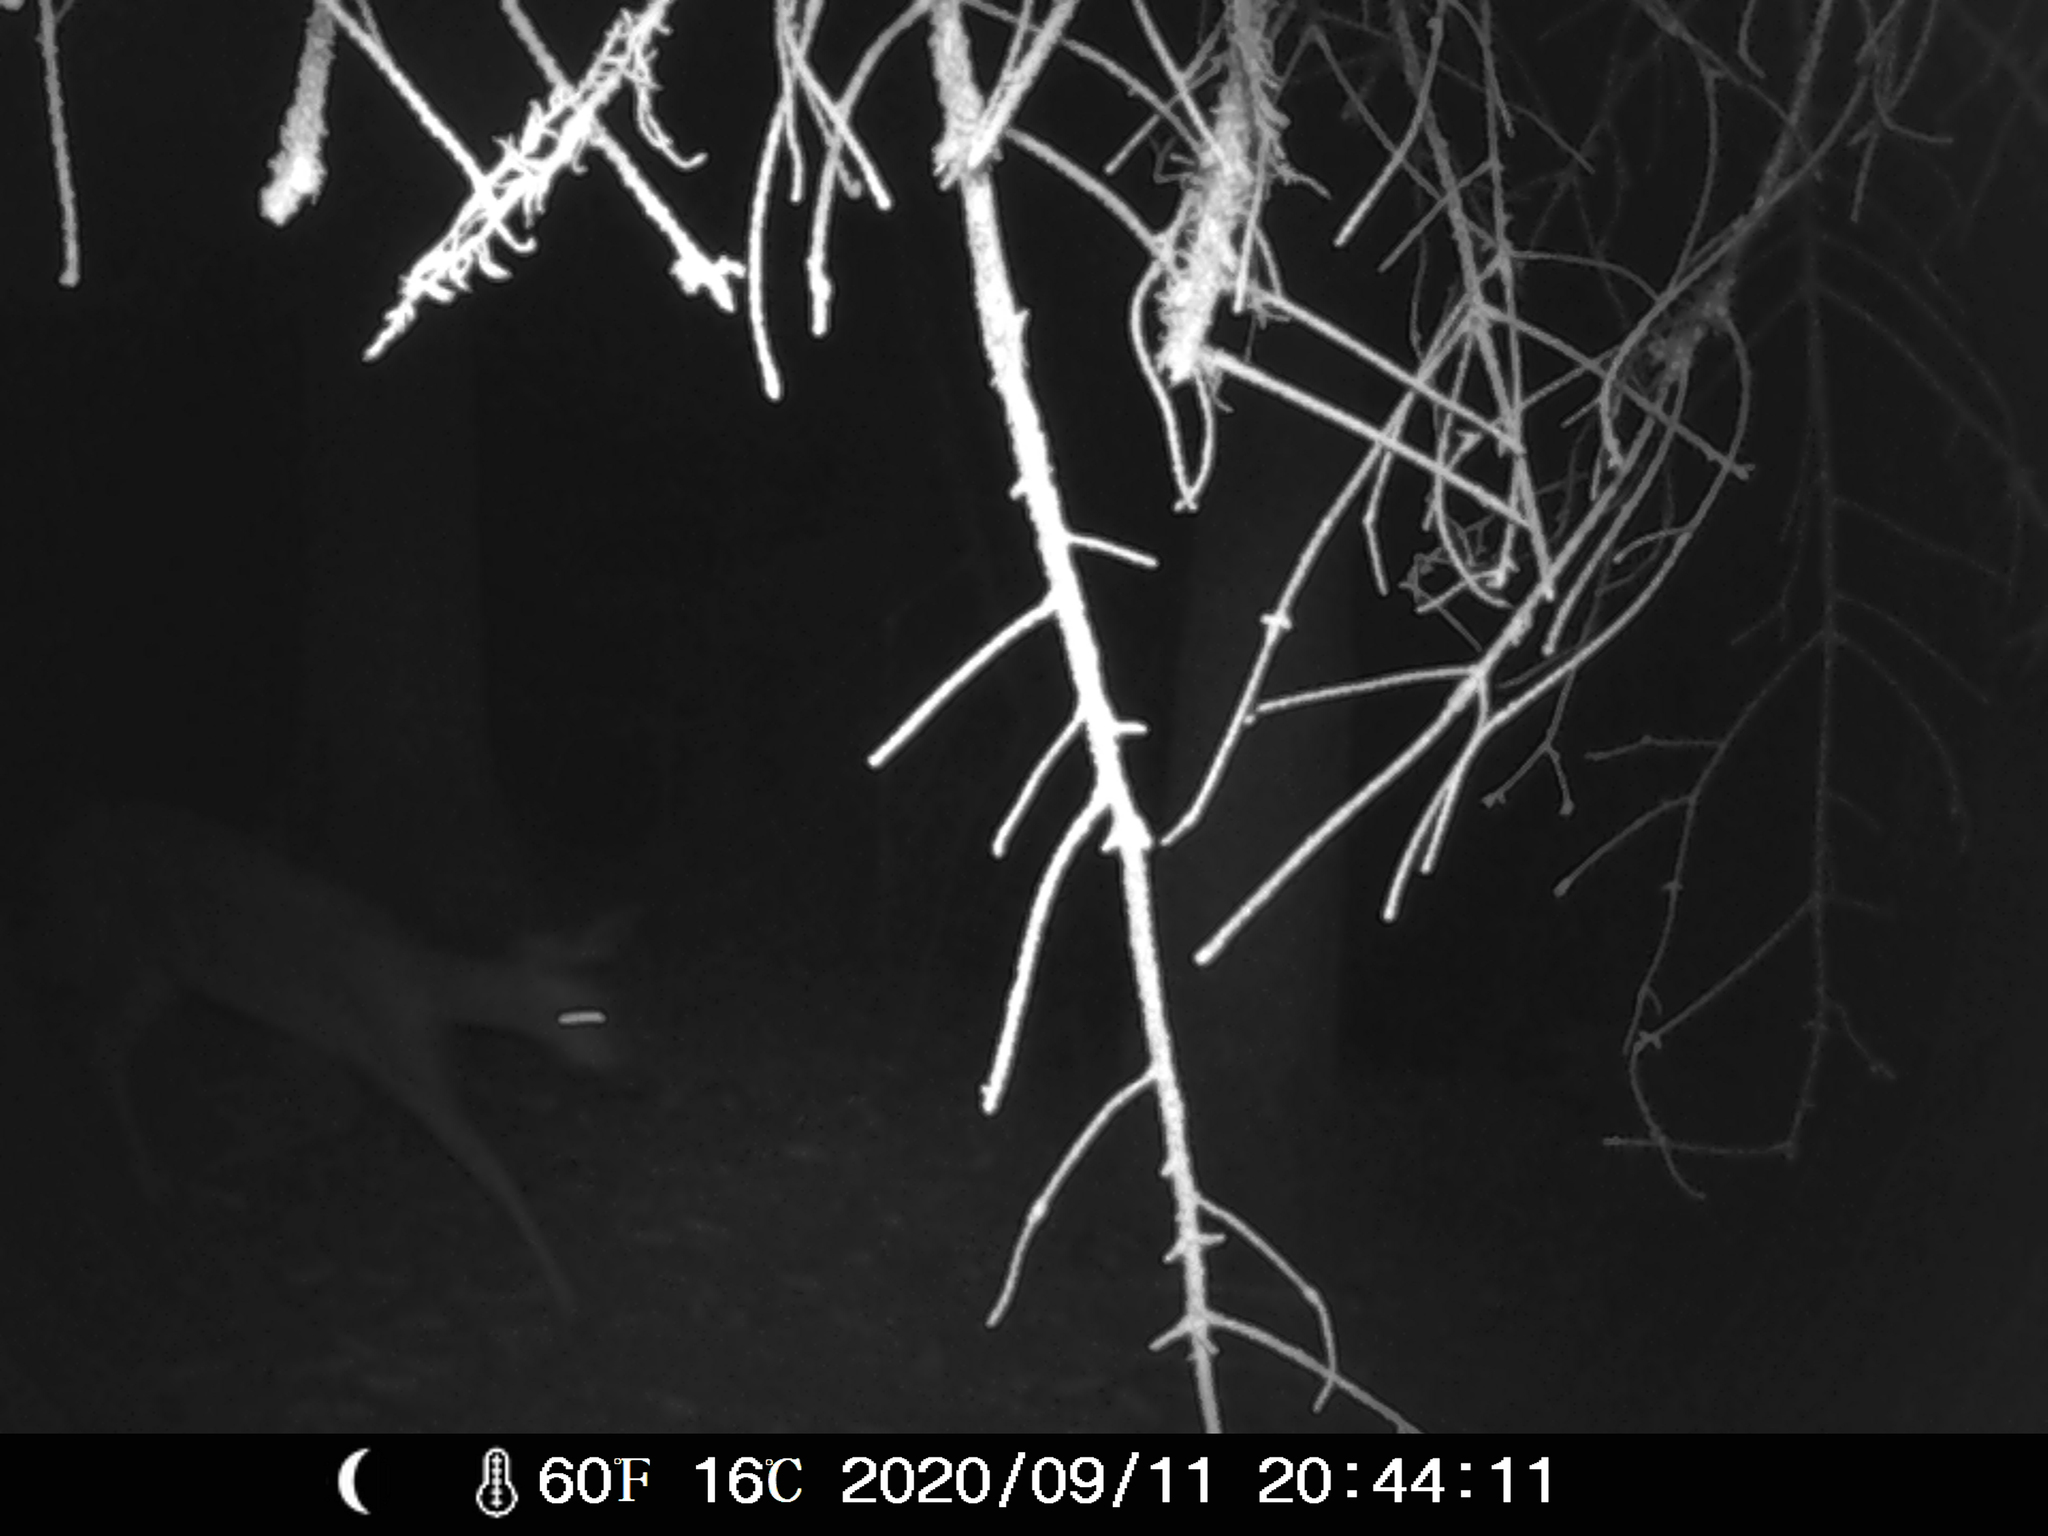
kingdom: Animalia
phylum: Chordata
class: Mammalia
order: Artiodactyla
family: Cervidae
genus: Capreolus
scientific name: Capreolus capreolus
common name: Western roe deer
